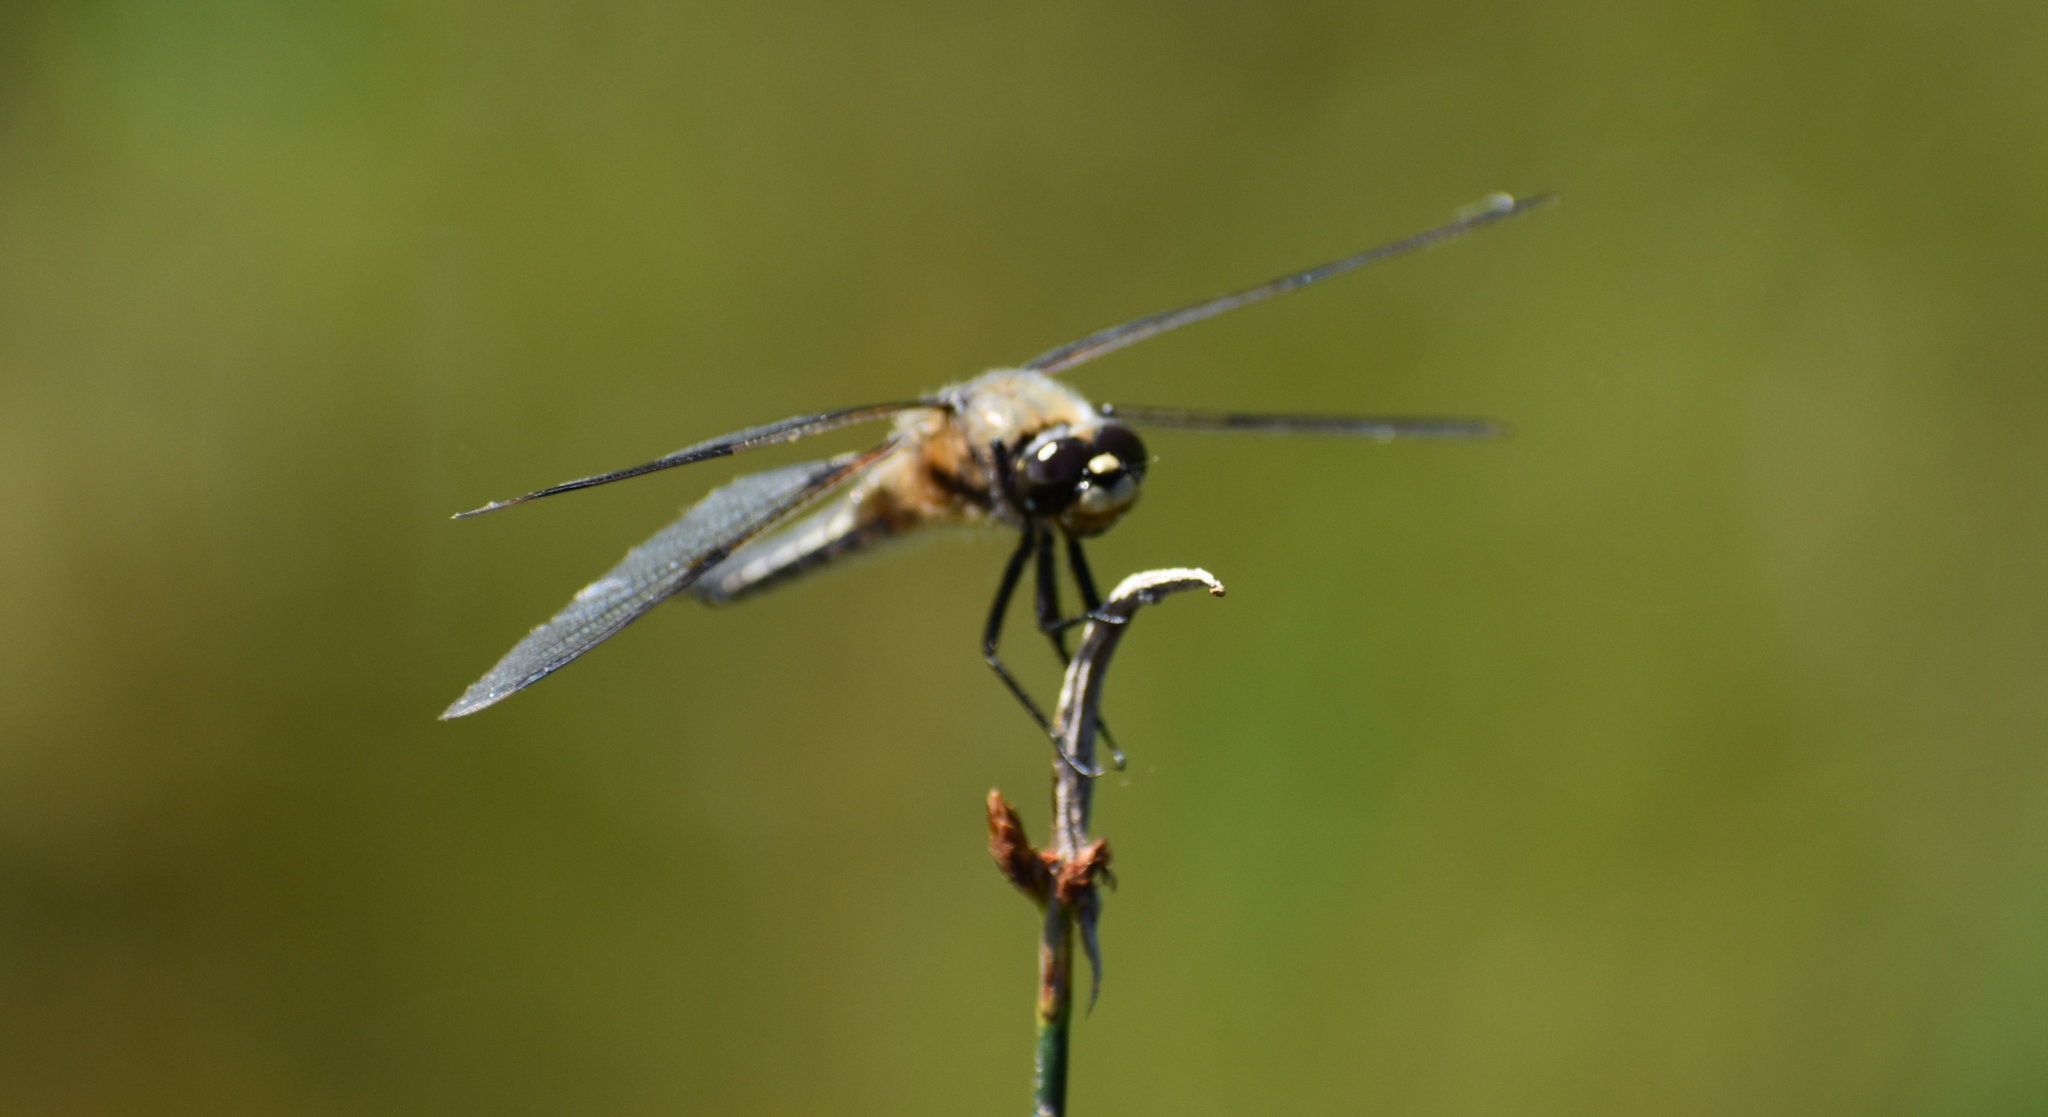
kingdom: Animalia
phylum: Arthropoda
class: Insecta
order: Odonata
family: Libellulidae
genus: Libellula
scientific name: Libellula quadrimaculata
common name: Four-spotted chaser
